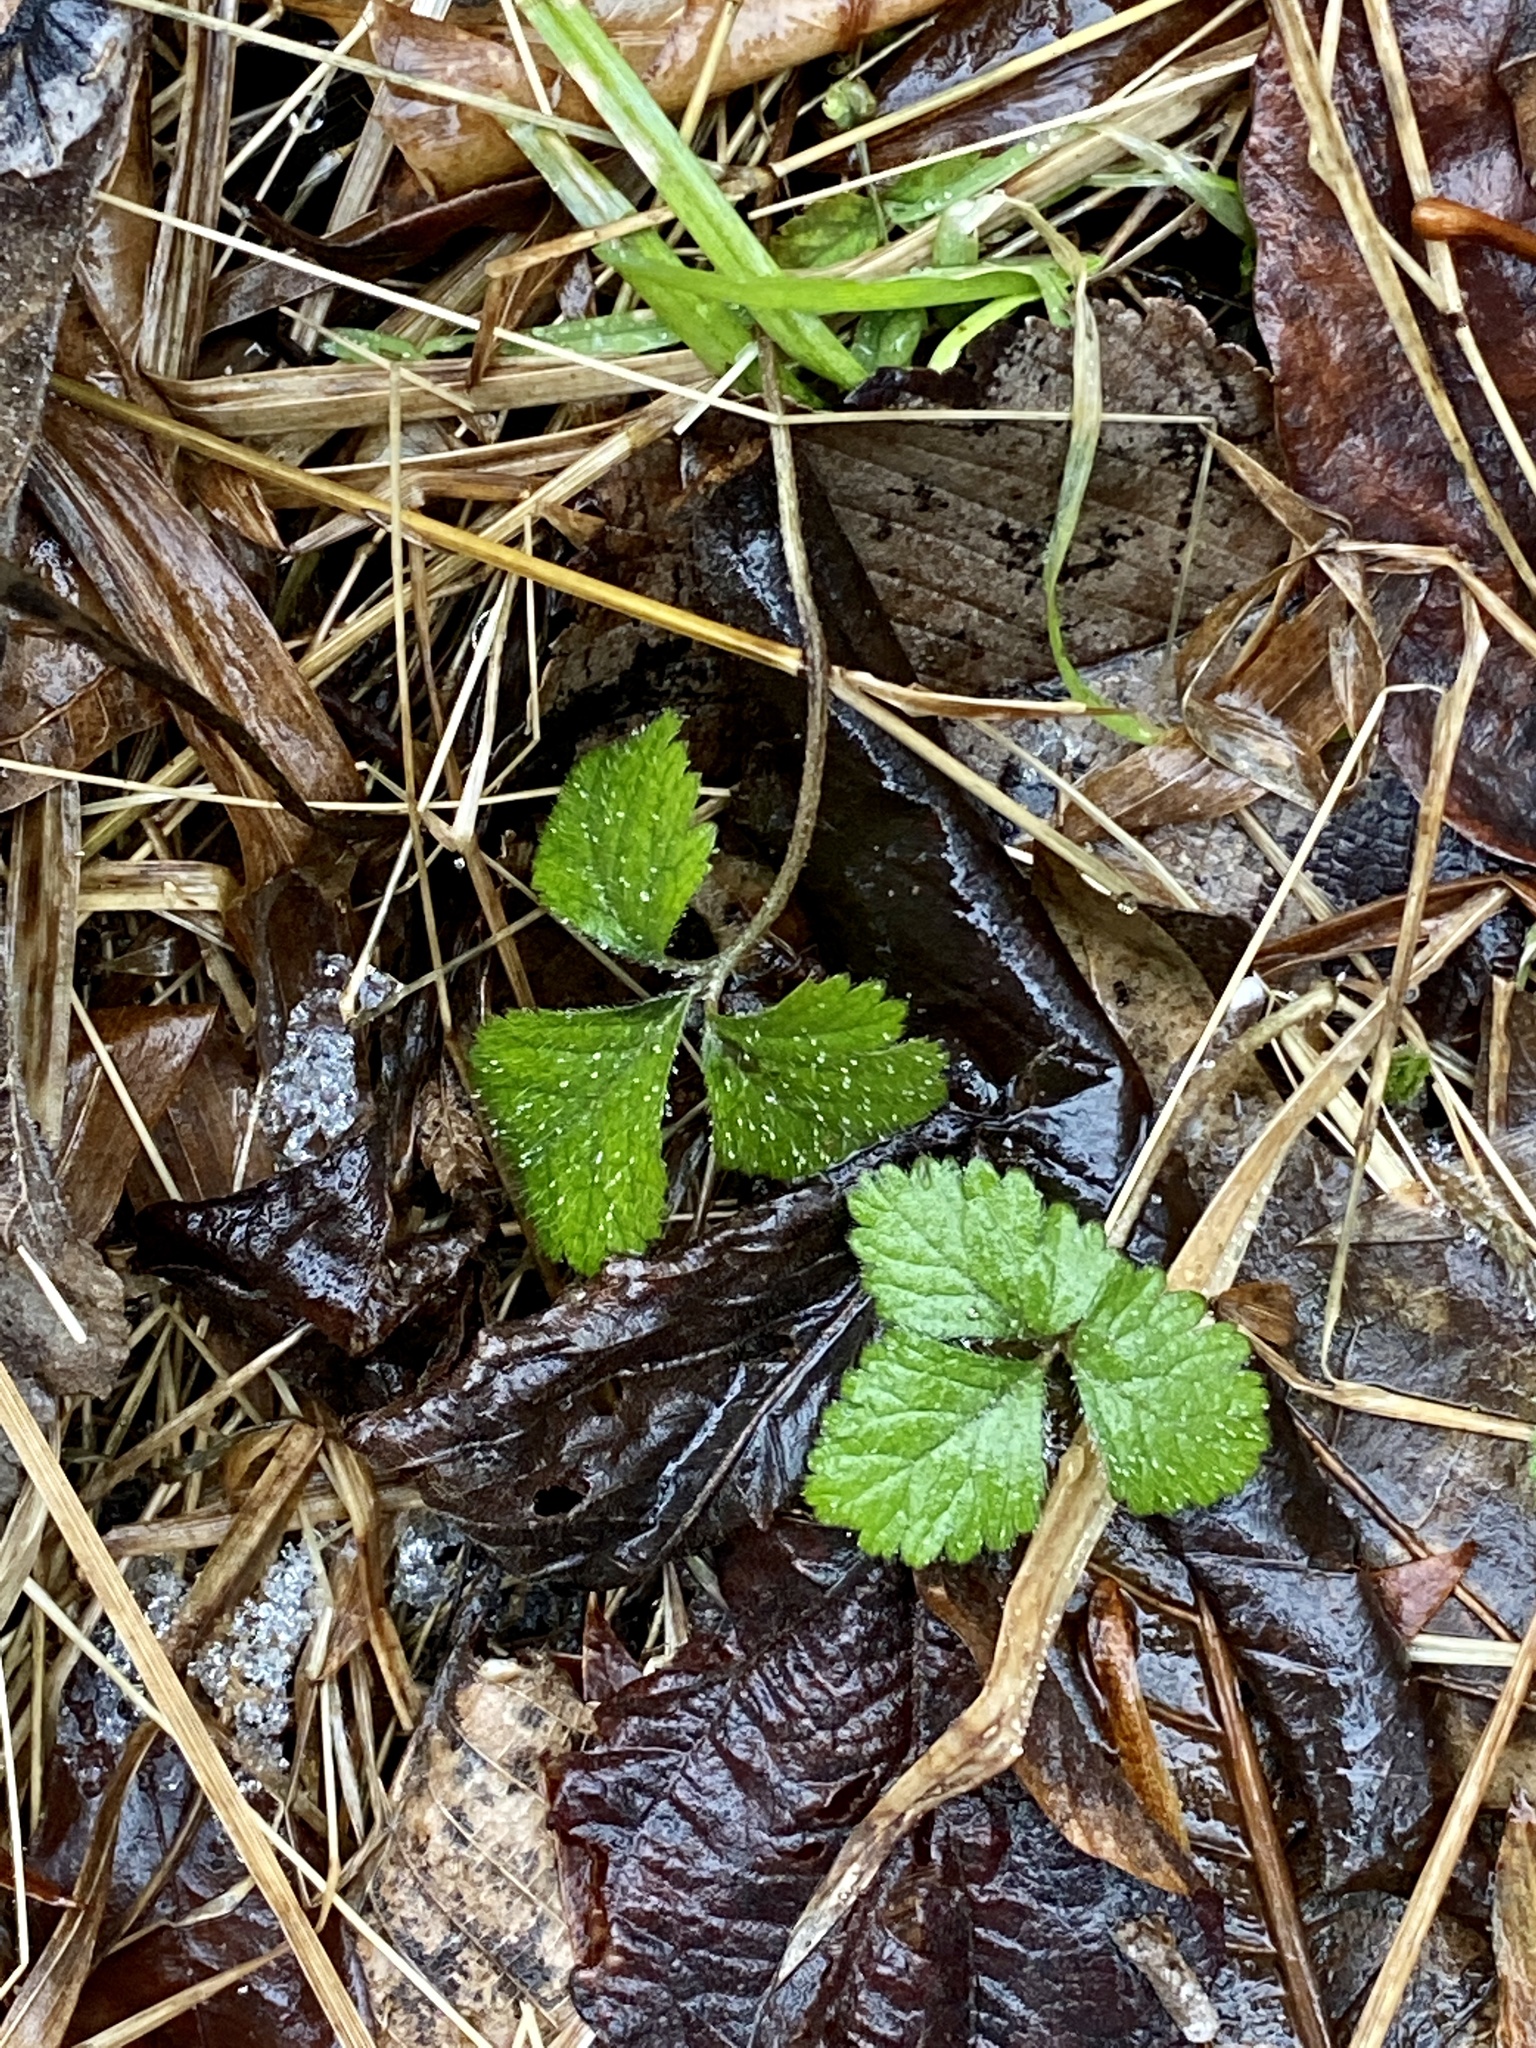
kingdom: Plantae
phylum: Tracheophyta
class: Magnoliopsida
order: Rosales
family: Rosaceae
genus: Potentilla
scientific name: Potentilla indica
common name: Yellow-flowered strawberry
